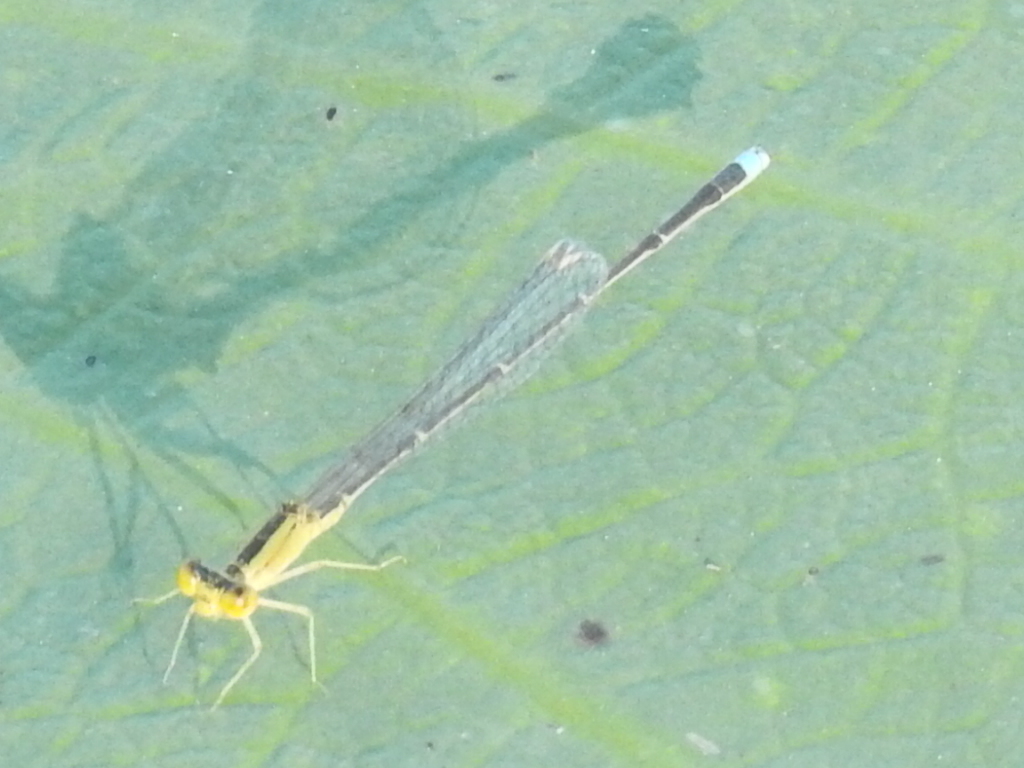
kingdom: Animalia
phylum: Arthropoda
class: Insecta
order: Odonata
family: Coenagrionidae
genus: Enallagma
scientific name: Enallagma vesperum
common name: Vesper bluet
